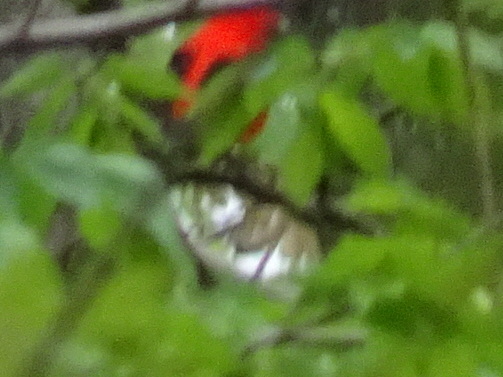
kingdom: Animalia
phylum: Chordata
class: Aves
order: Passeriformes
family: Cardinalidae
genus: Piranga
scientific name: Piranga olivacea
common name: Scarlet tanager
